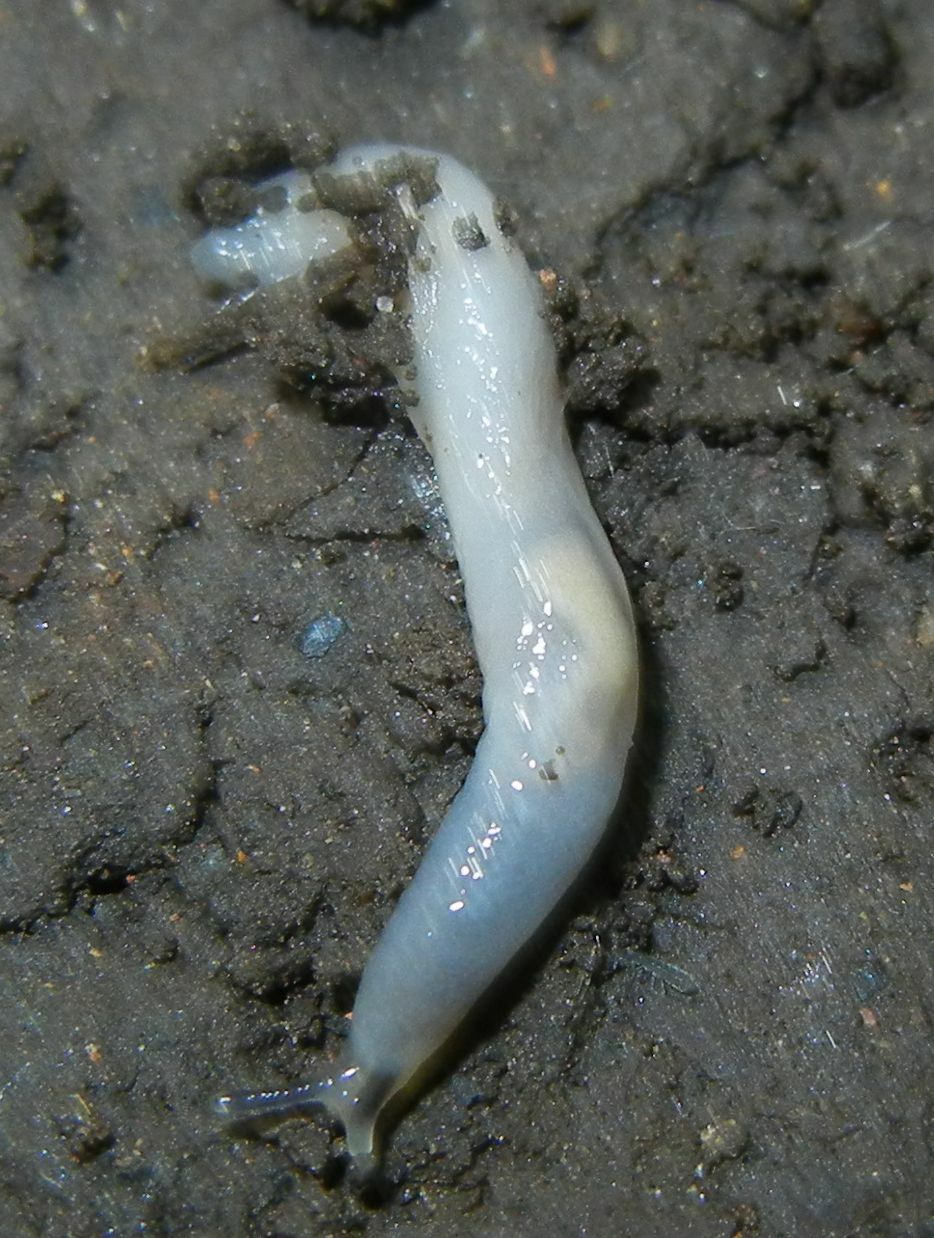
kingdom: Animalia
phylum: Mollusca
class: Gastropoda
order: Stylommatophora
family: Boettgerillidae
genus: Boettgerilla
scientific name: Boettgerilla pallens
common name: Worm slug
